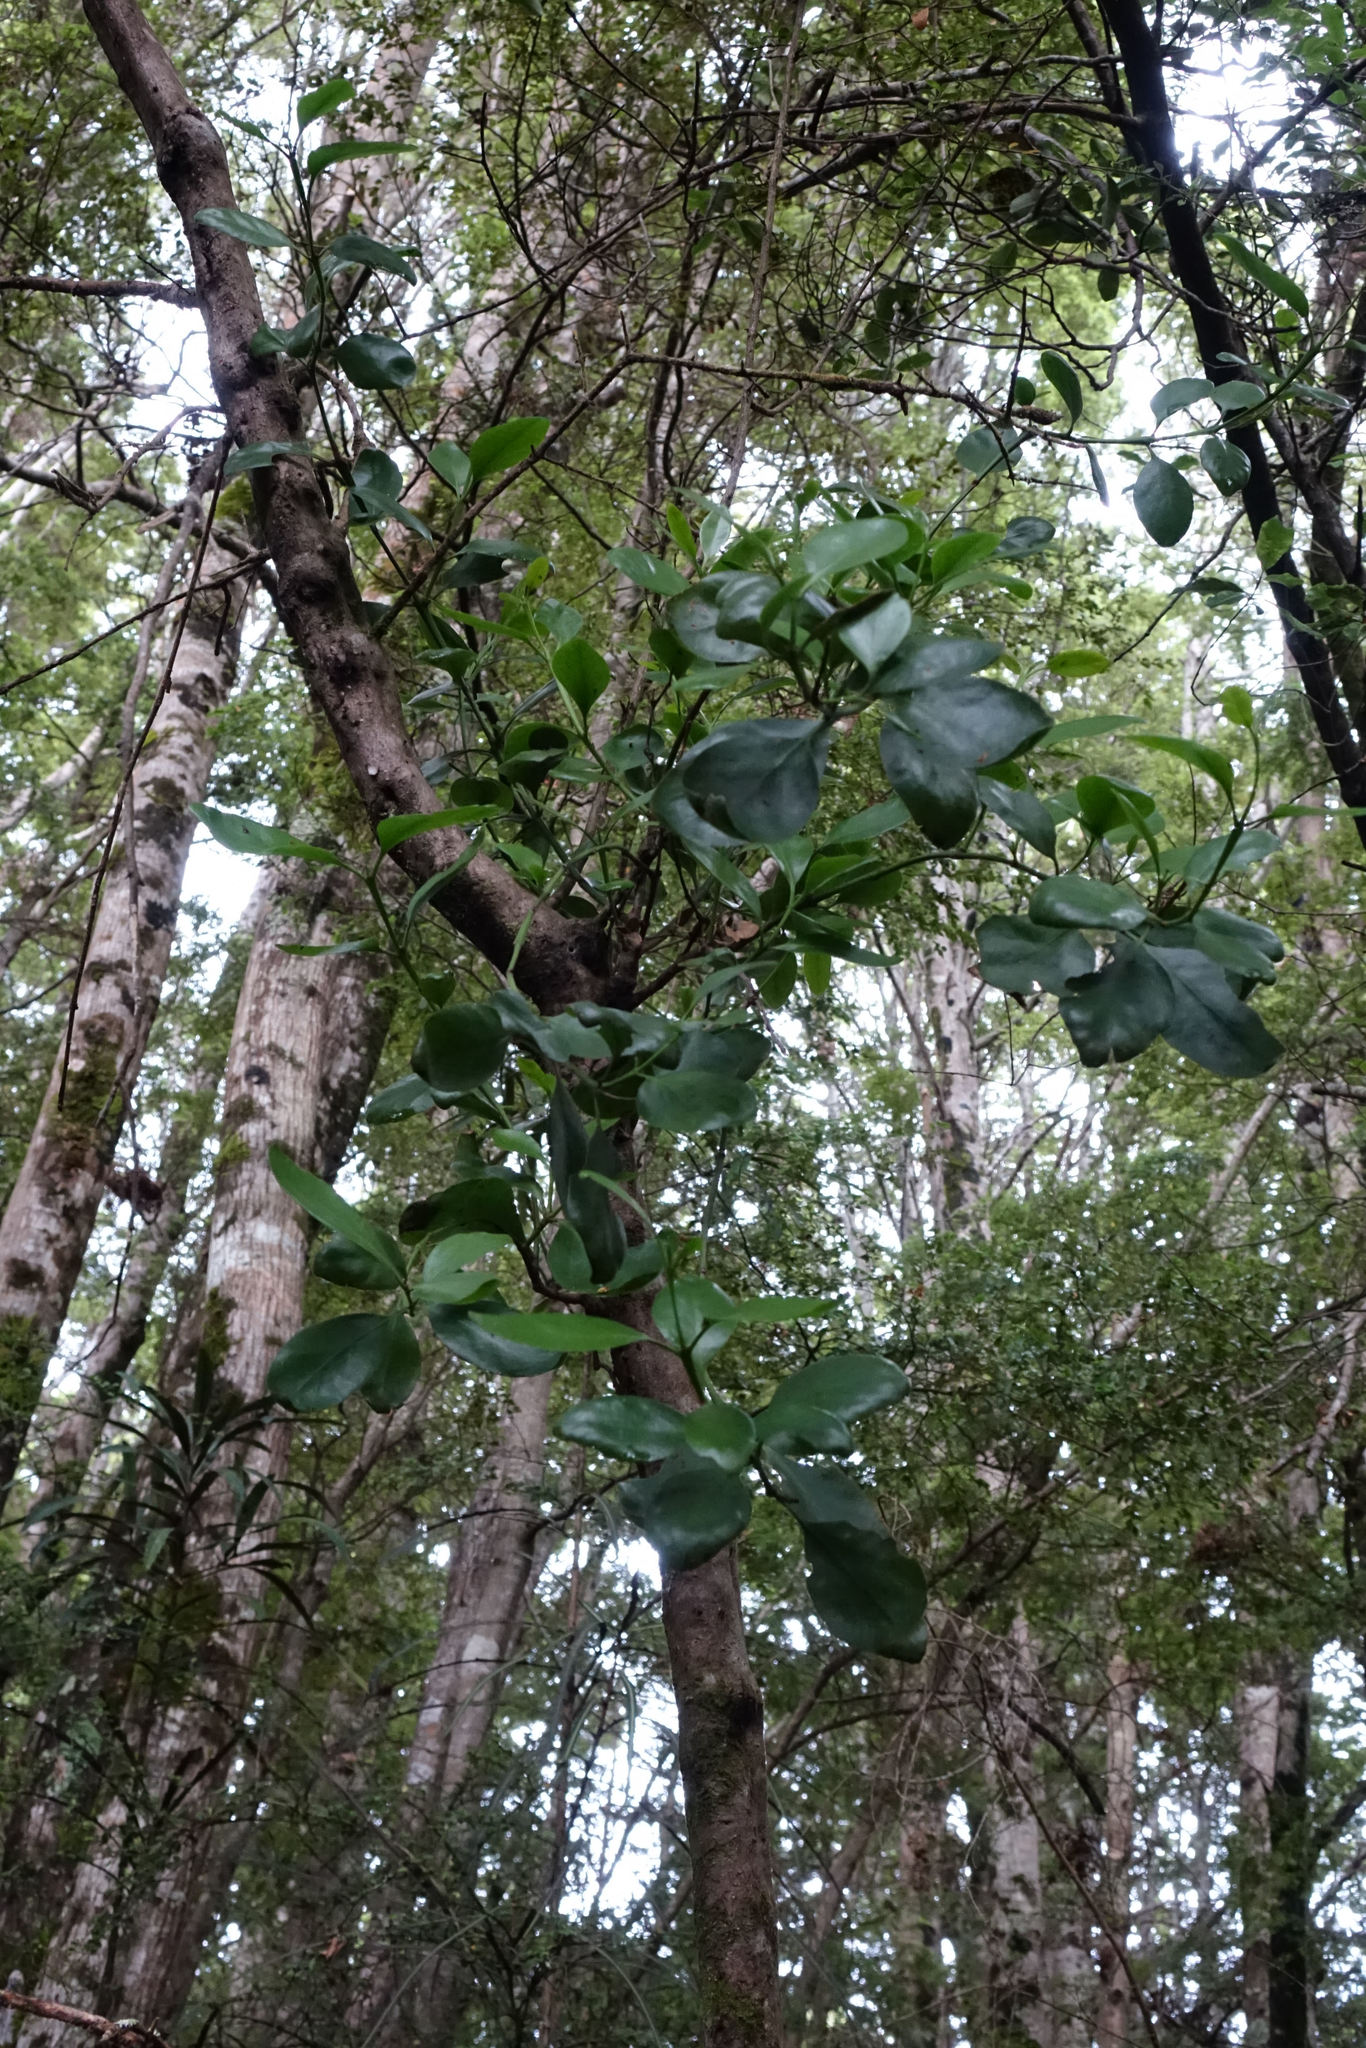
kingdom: Plantae
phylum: Tracheophyta
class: Magnoliopsida
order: Santalales
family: Loranthaceae
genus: Ileostylus
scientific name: Ileostylus micranthus
